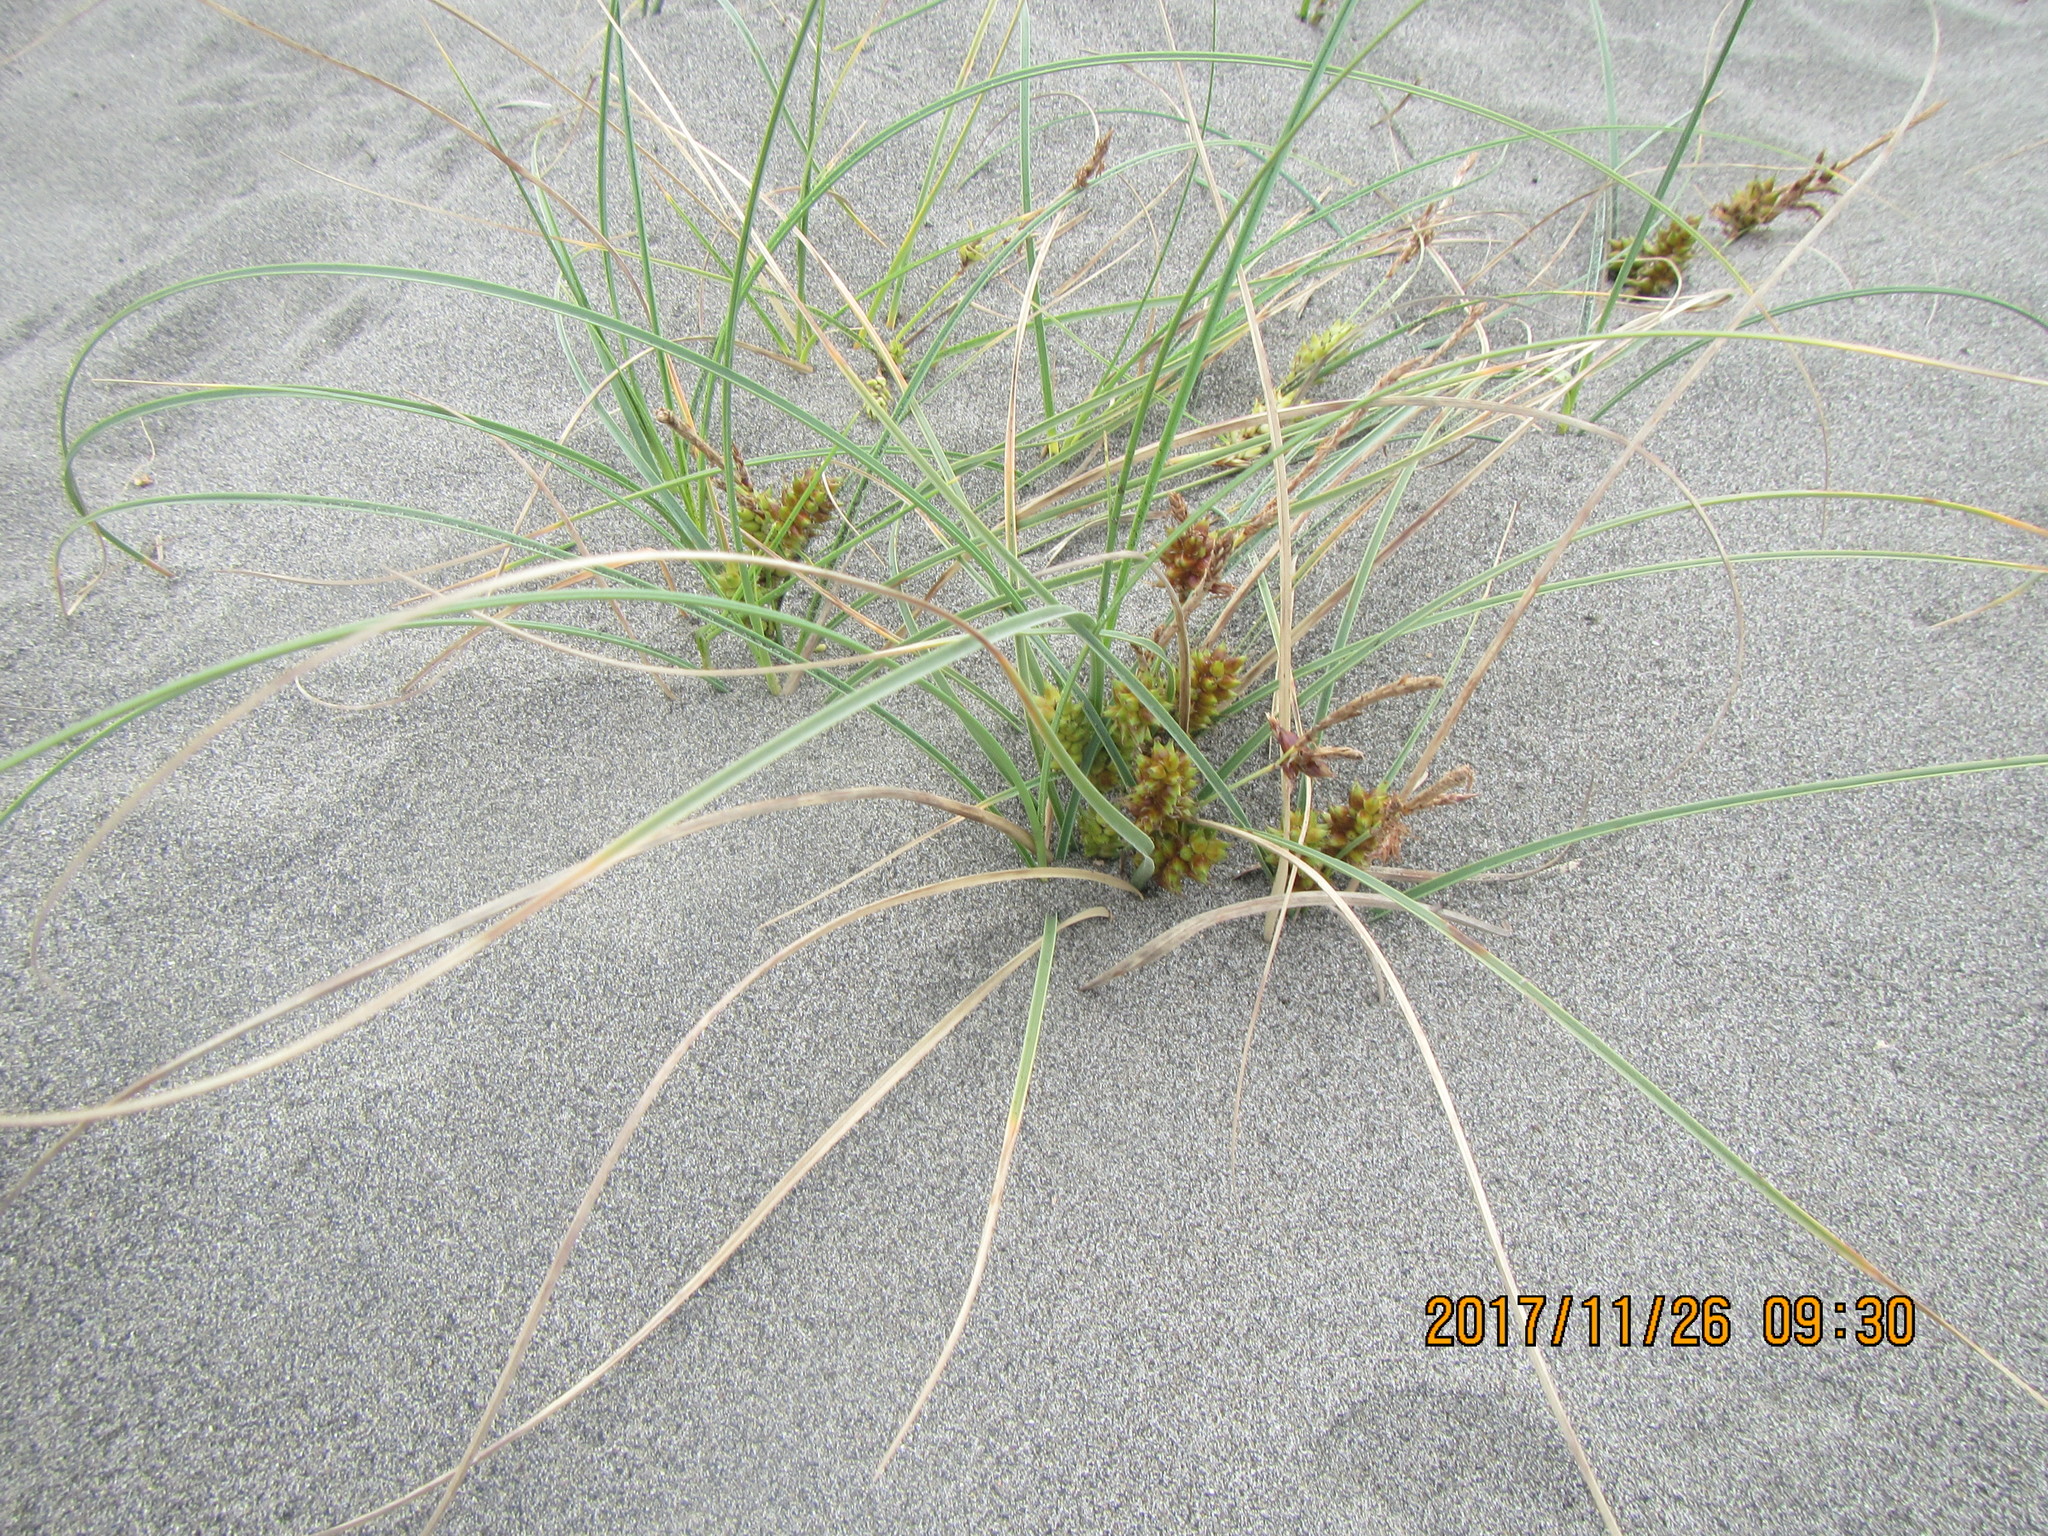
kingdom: Plantae
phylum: Tracheophyta
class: Liliopsida
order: Poales
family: Cyperaceae
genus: Carex
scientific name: Carex pumila
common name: Dwarf sedge
